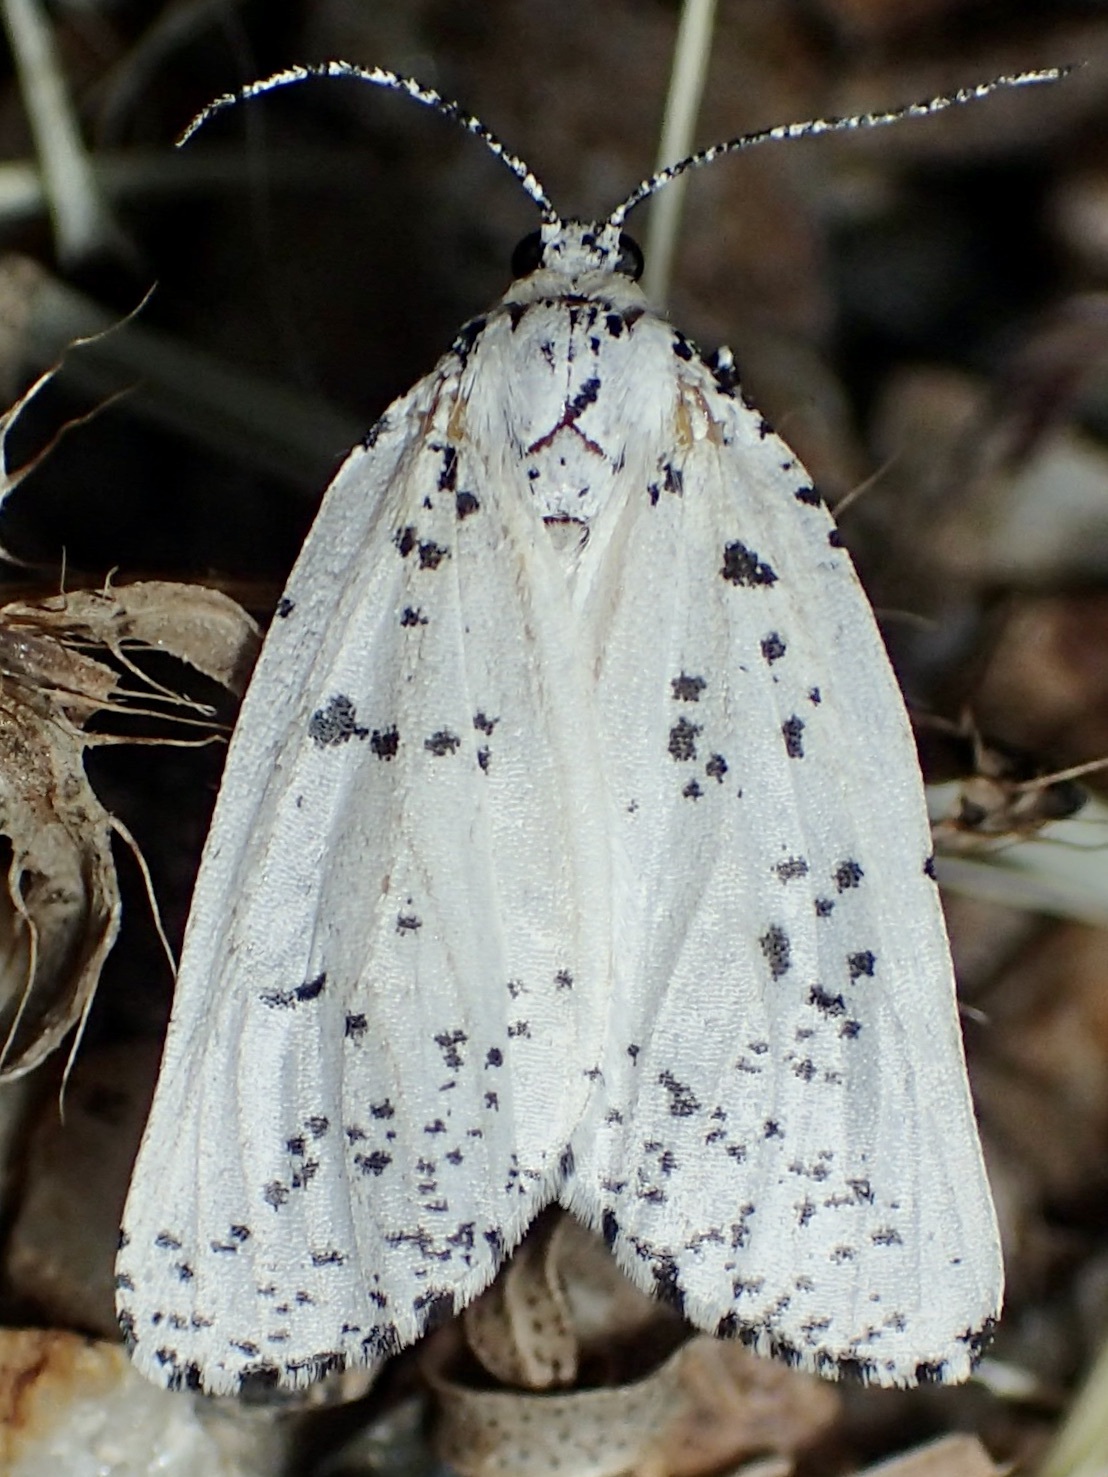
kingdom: Animalia
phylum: Arthropoda
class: Insecta
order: Lepidoptera
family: Geometridae
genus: Eucaterva
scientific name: Eucaterva variaria
